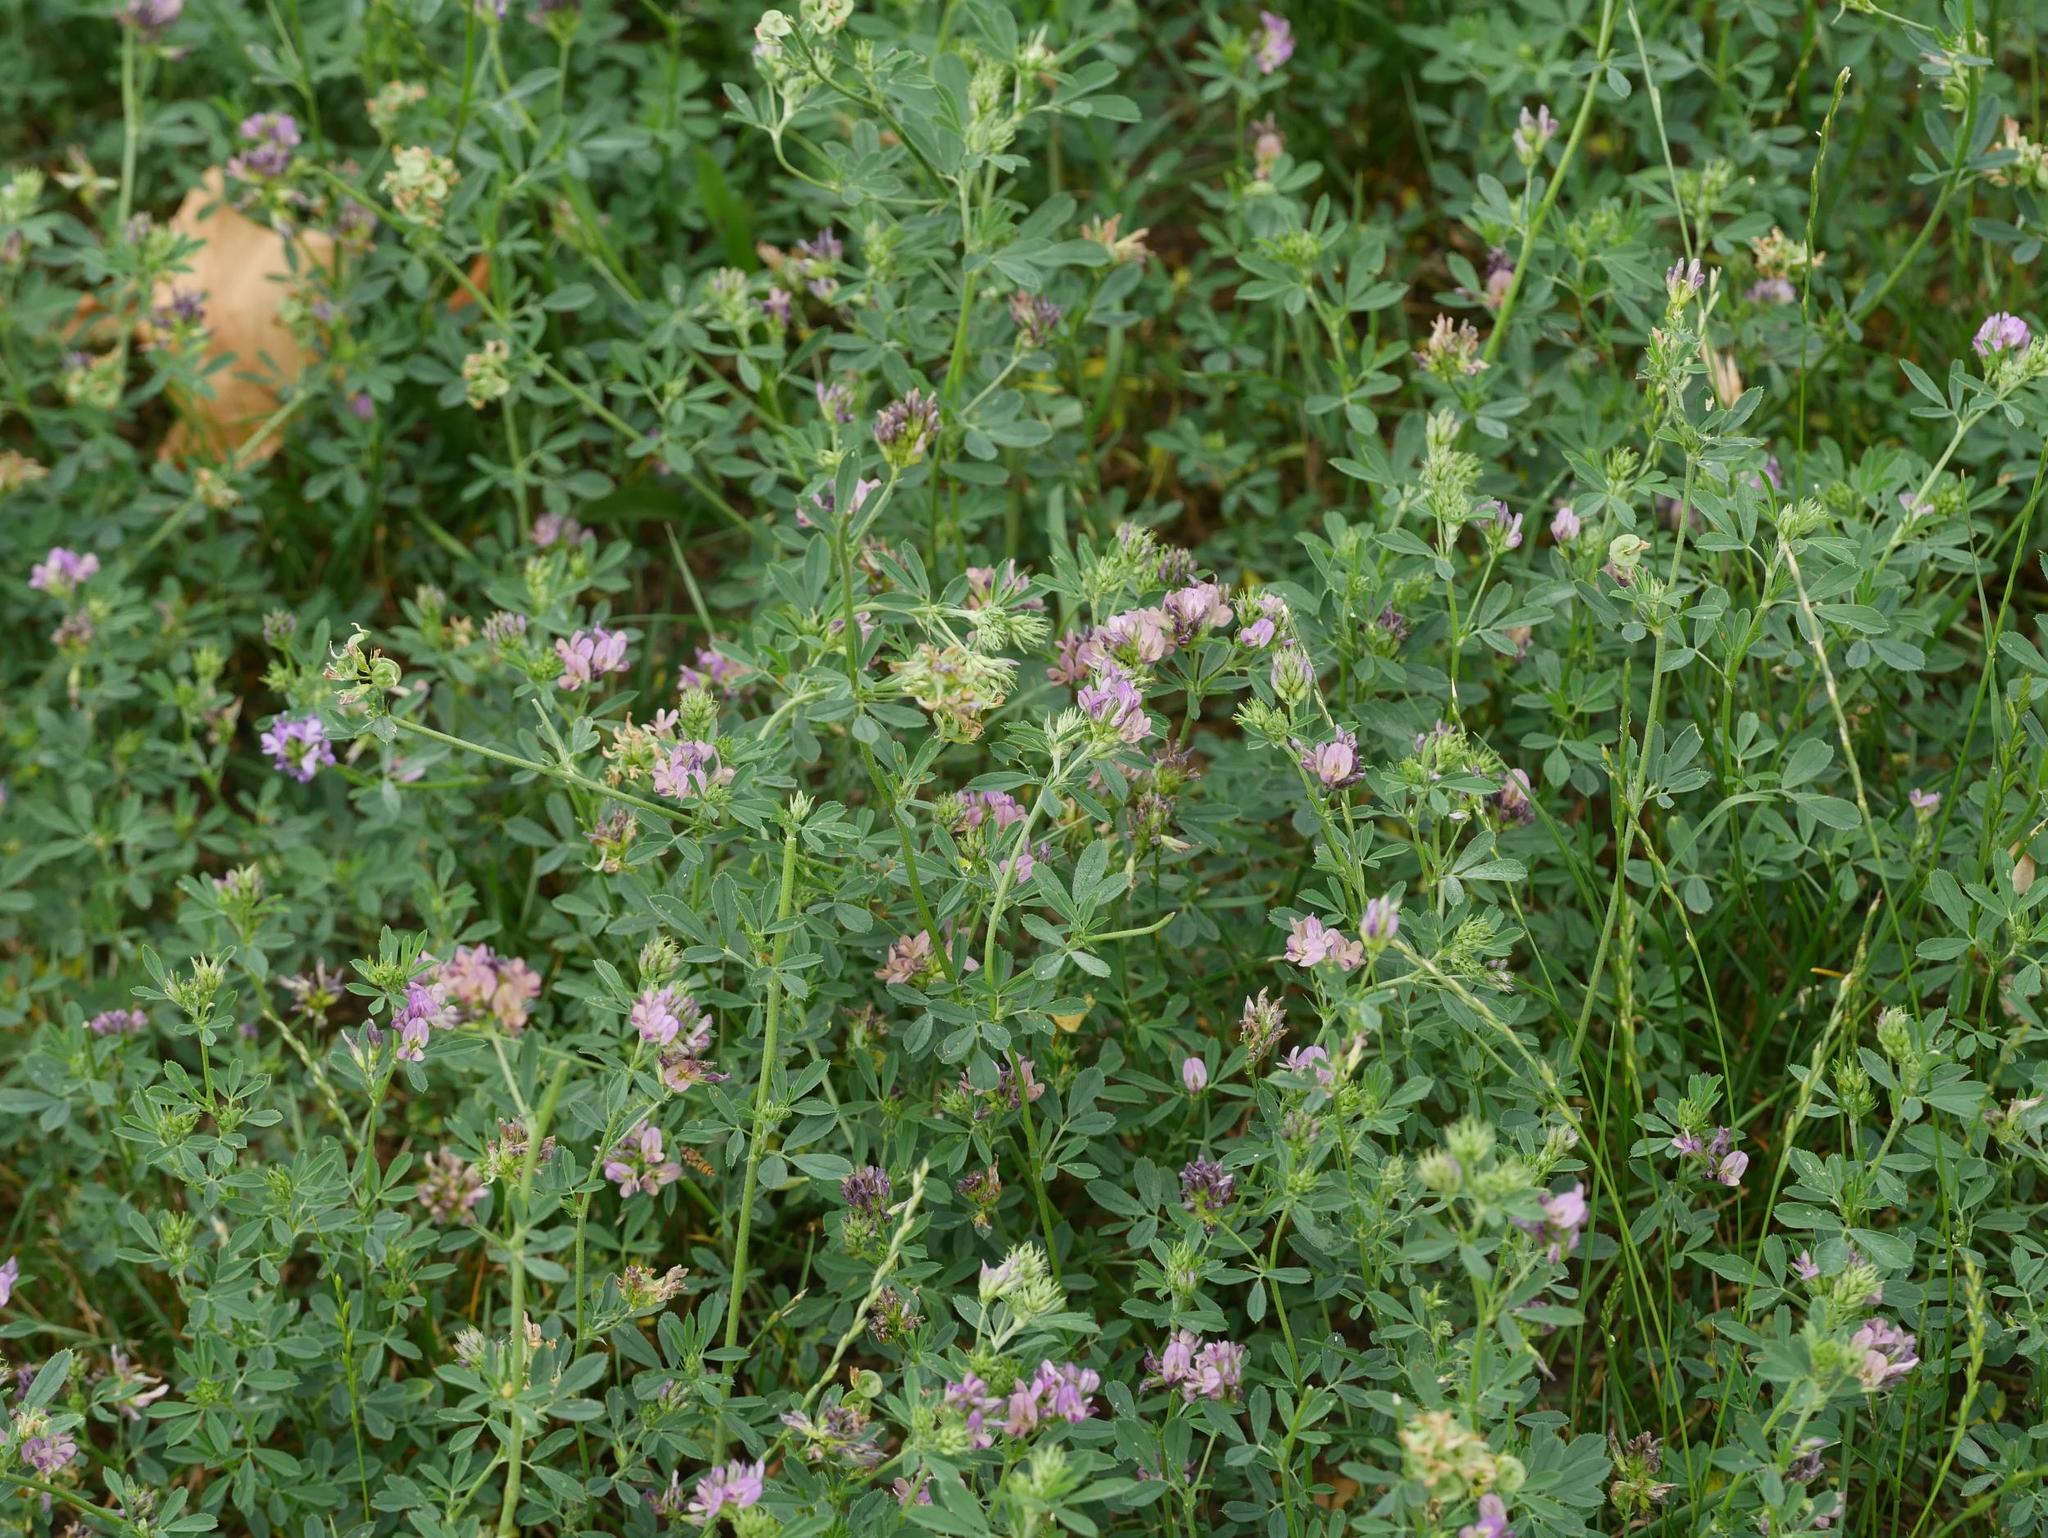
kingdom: Plantae
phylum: Tracheophyta
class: Magnoliopsida
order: Fabales
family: Fabaceae
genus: Medicago
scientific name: Medicago varia
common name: Sand lucerne
